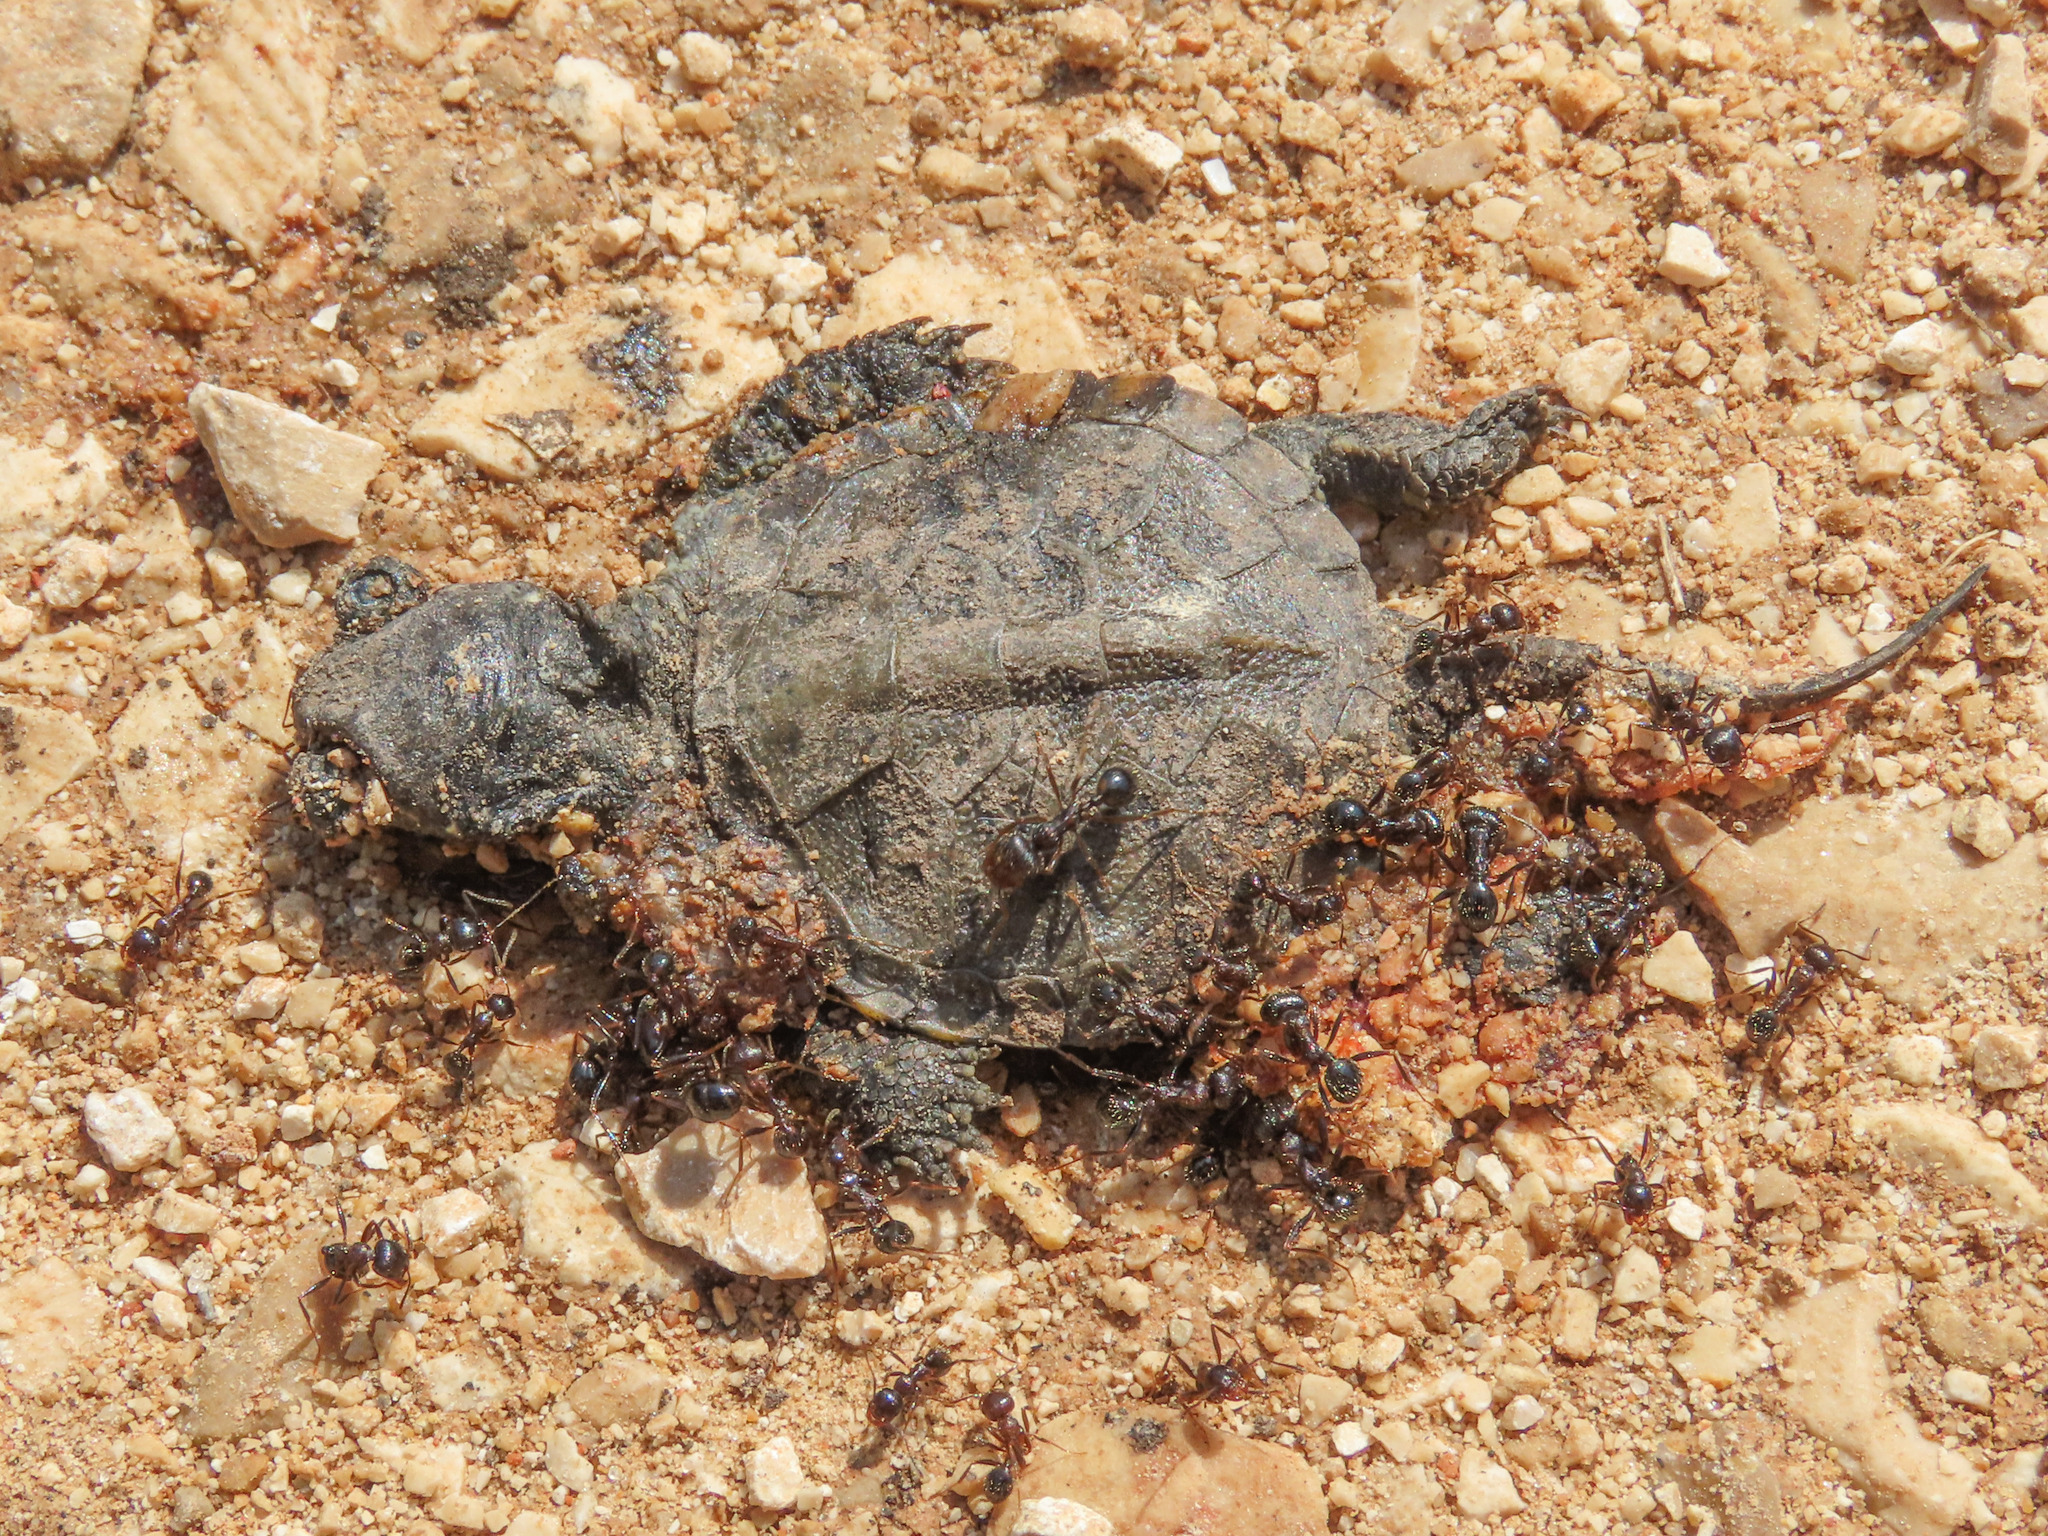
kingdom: Animalia
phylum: Chordata
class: Testudines
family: Emydidae
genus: Emys
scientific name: Emys orbicularis
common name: European pond turtle
